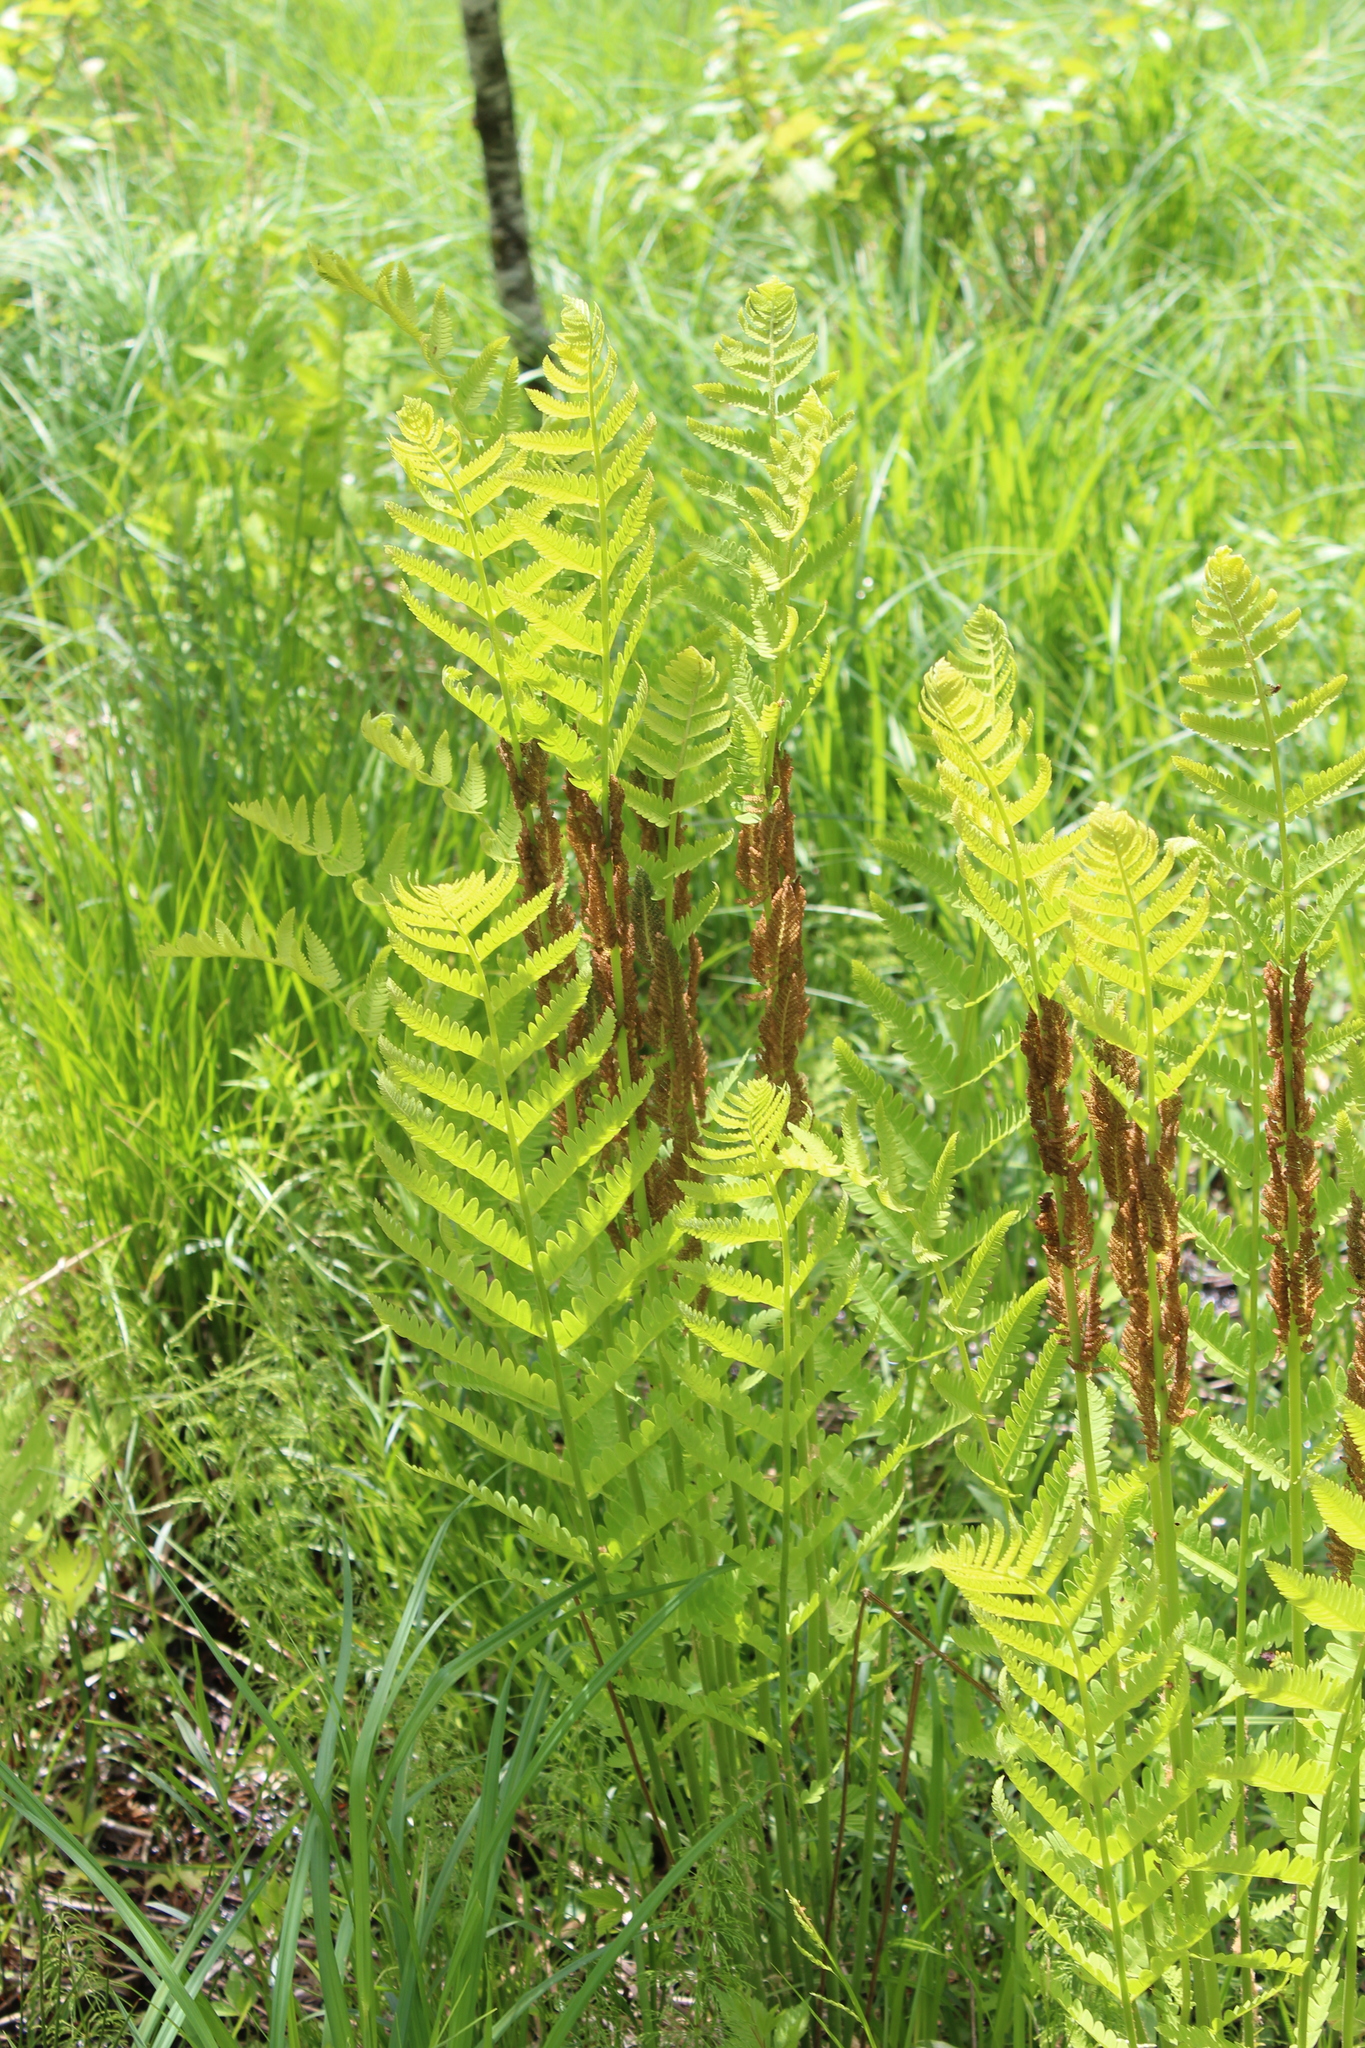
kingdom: Plantae
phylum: Tracheophyta
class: Polypodiopsida
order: Osmundales
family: Osmundaceae
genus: Claytosmunda
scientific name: Claytosmunda claytoniana
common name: Clayton's fern
